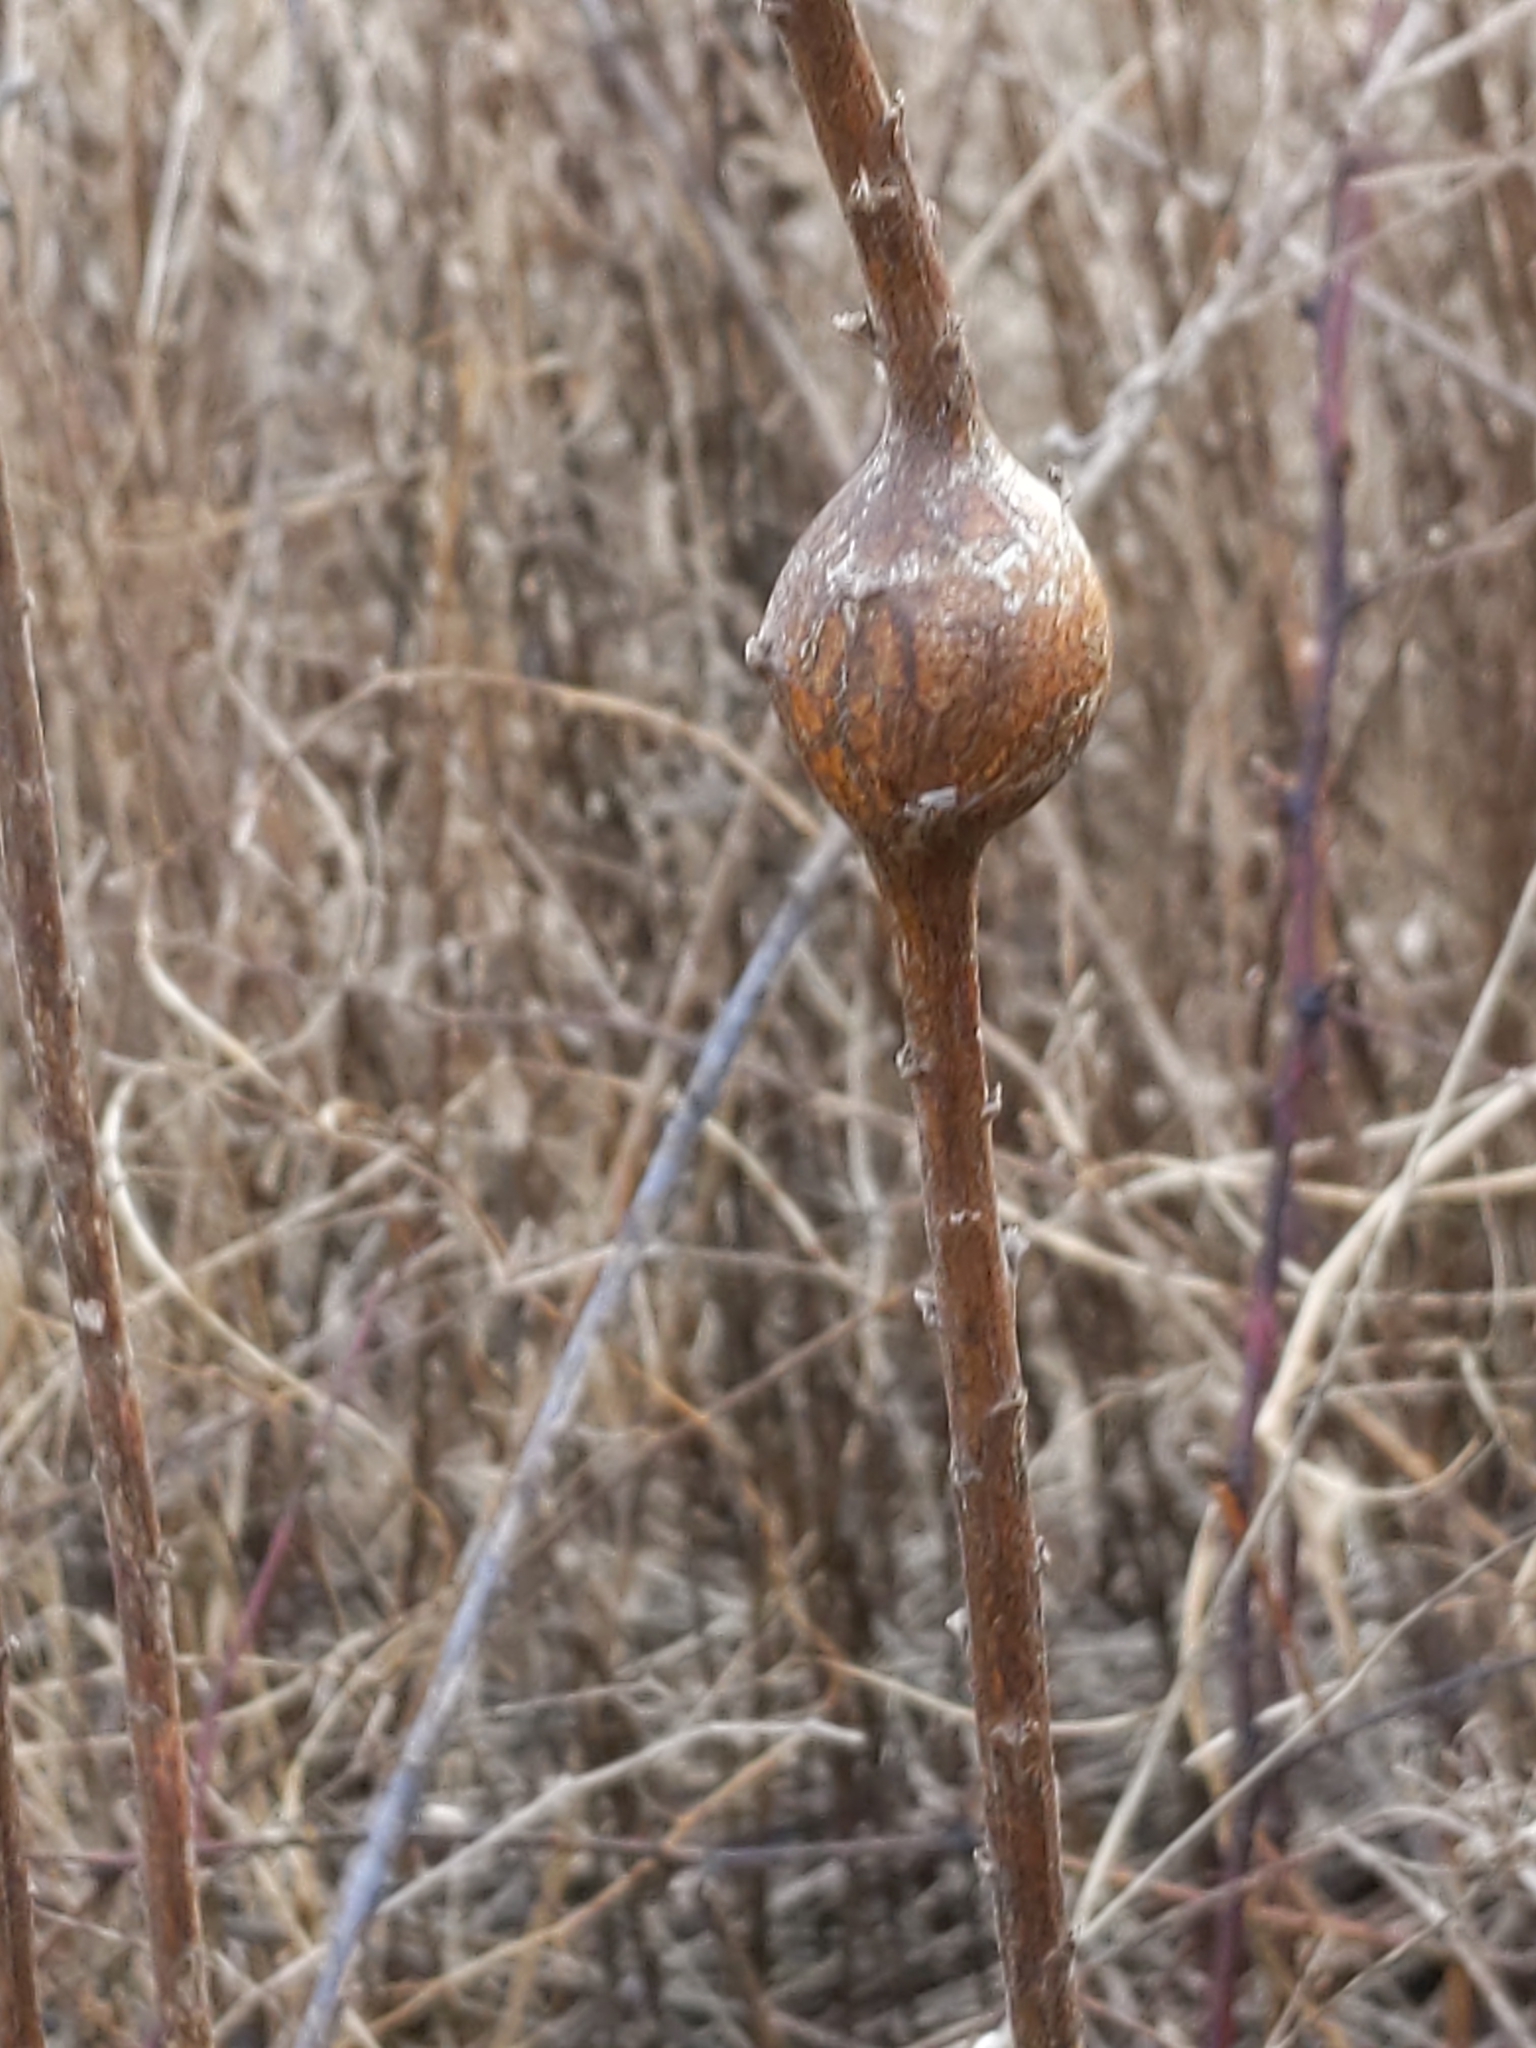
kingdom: Animalia
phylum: Arthropoda
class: Insecta
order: Diptera
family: Tephritidae
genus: Eurosta
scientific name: Eurosta solidaginis
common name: Goldenrod gall fly
